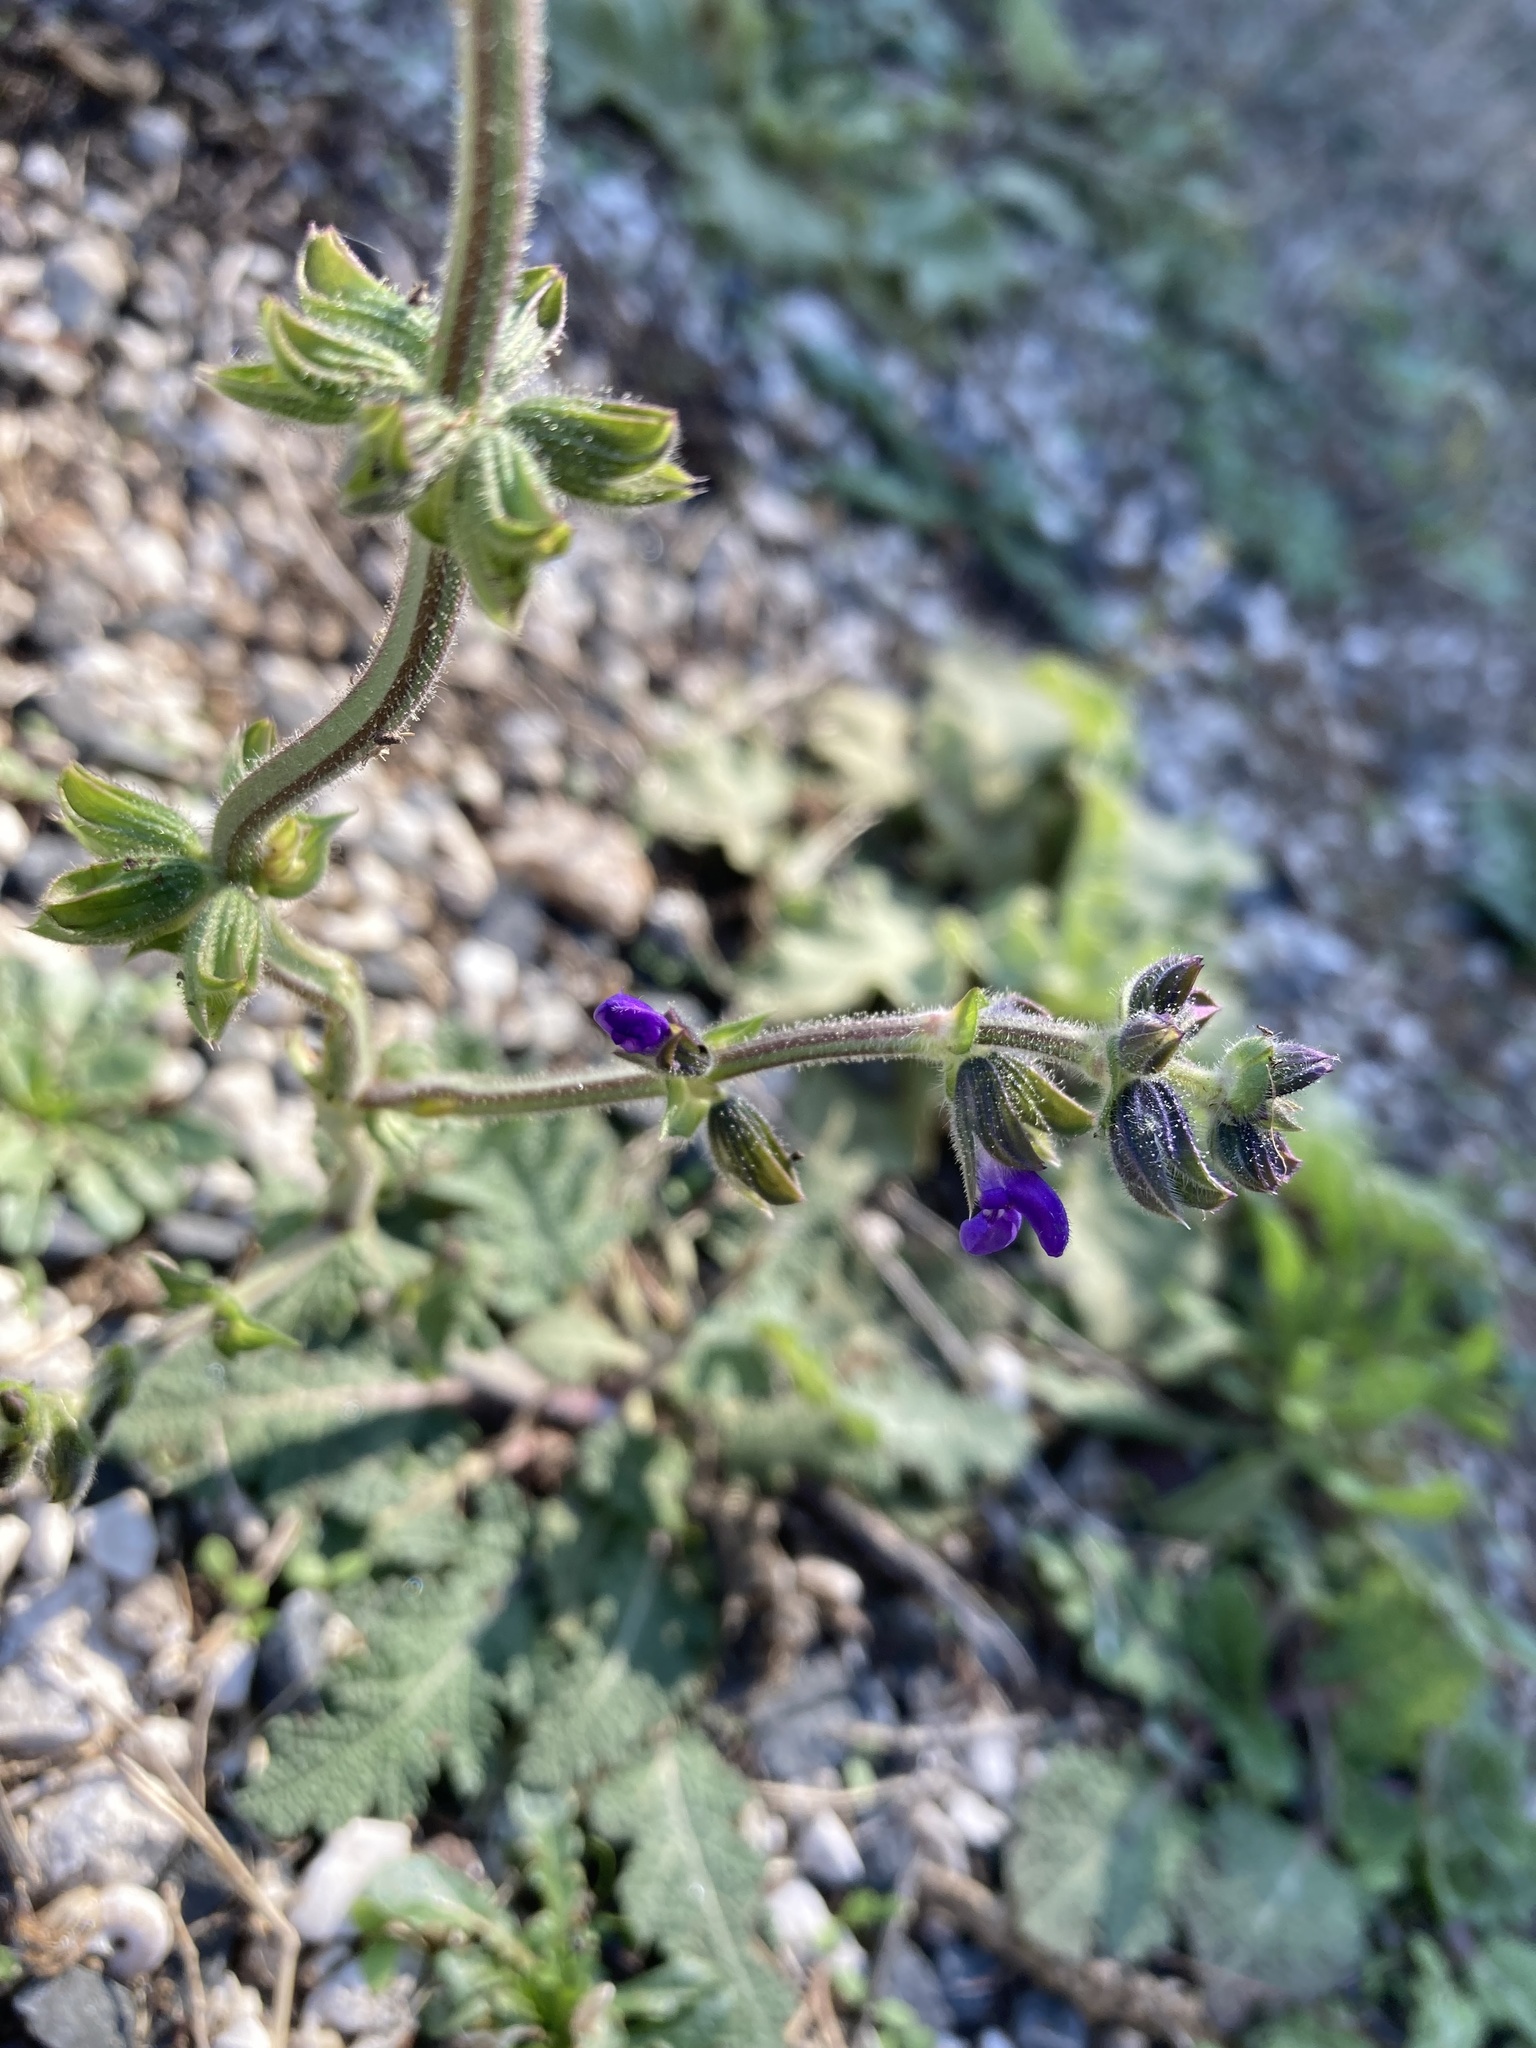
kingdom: Plantae
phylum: Tracheophyta
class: Magnoliopsida
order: Lamiales
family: Lamiaceae
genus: Salvia
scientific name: Salvia verbenaca
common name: Wild clary
